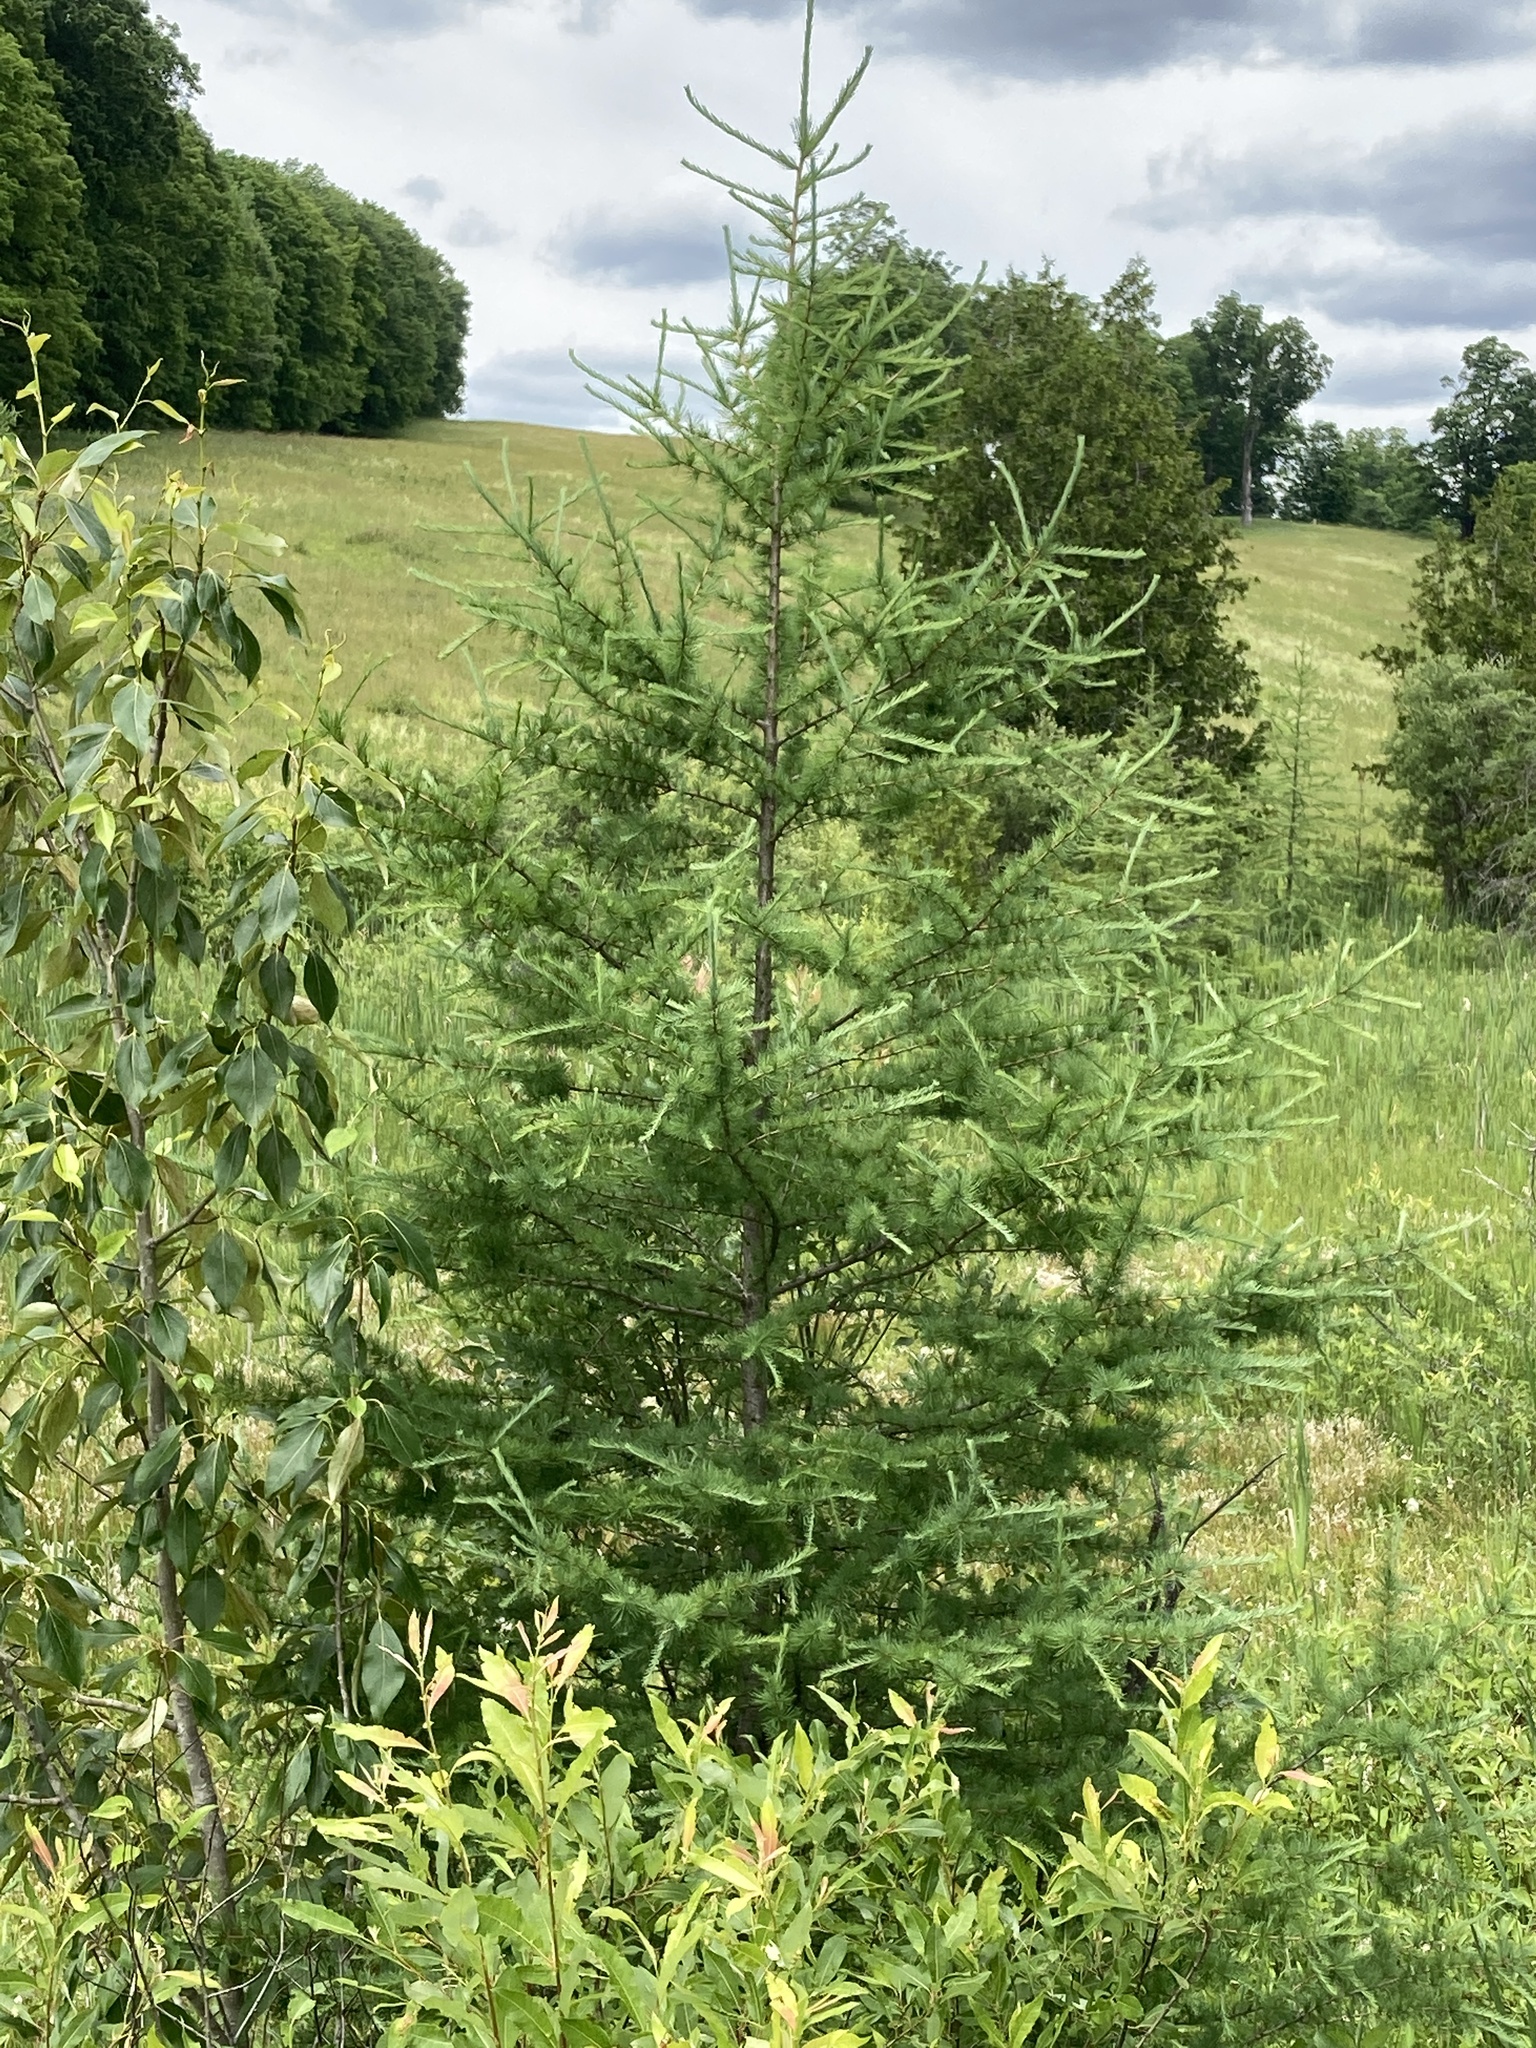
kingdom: Plantae
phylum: Tracheophyta
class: Pinopsida
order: Pinales
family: Pinaceae
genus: Larix
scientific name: Larix laricina
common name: American larch
